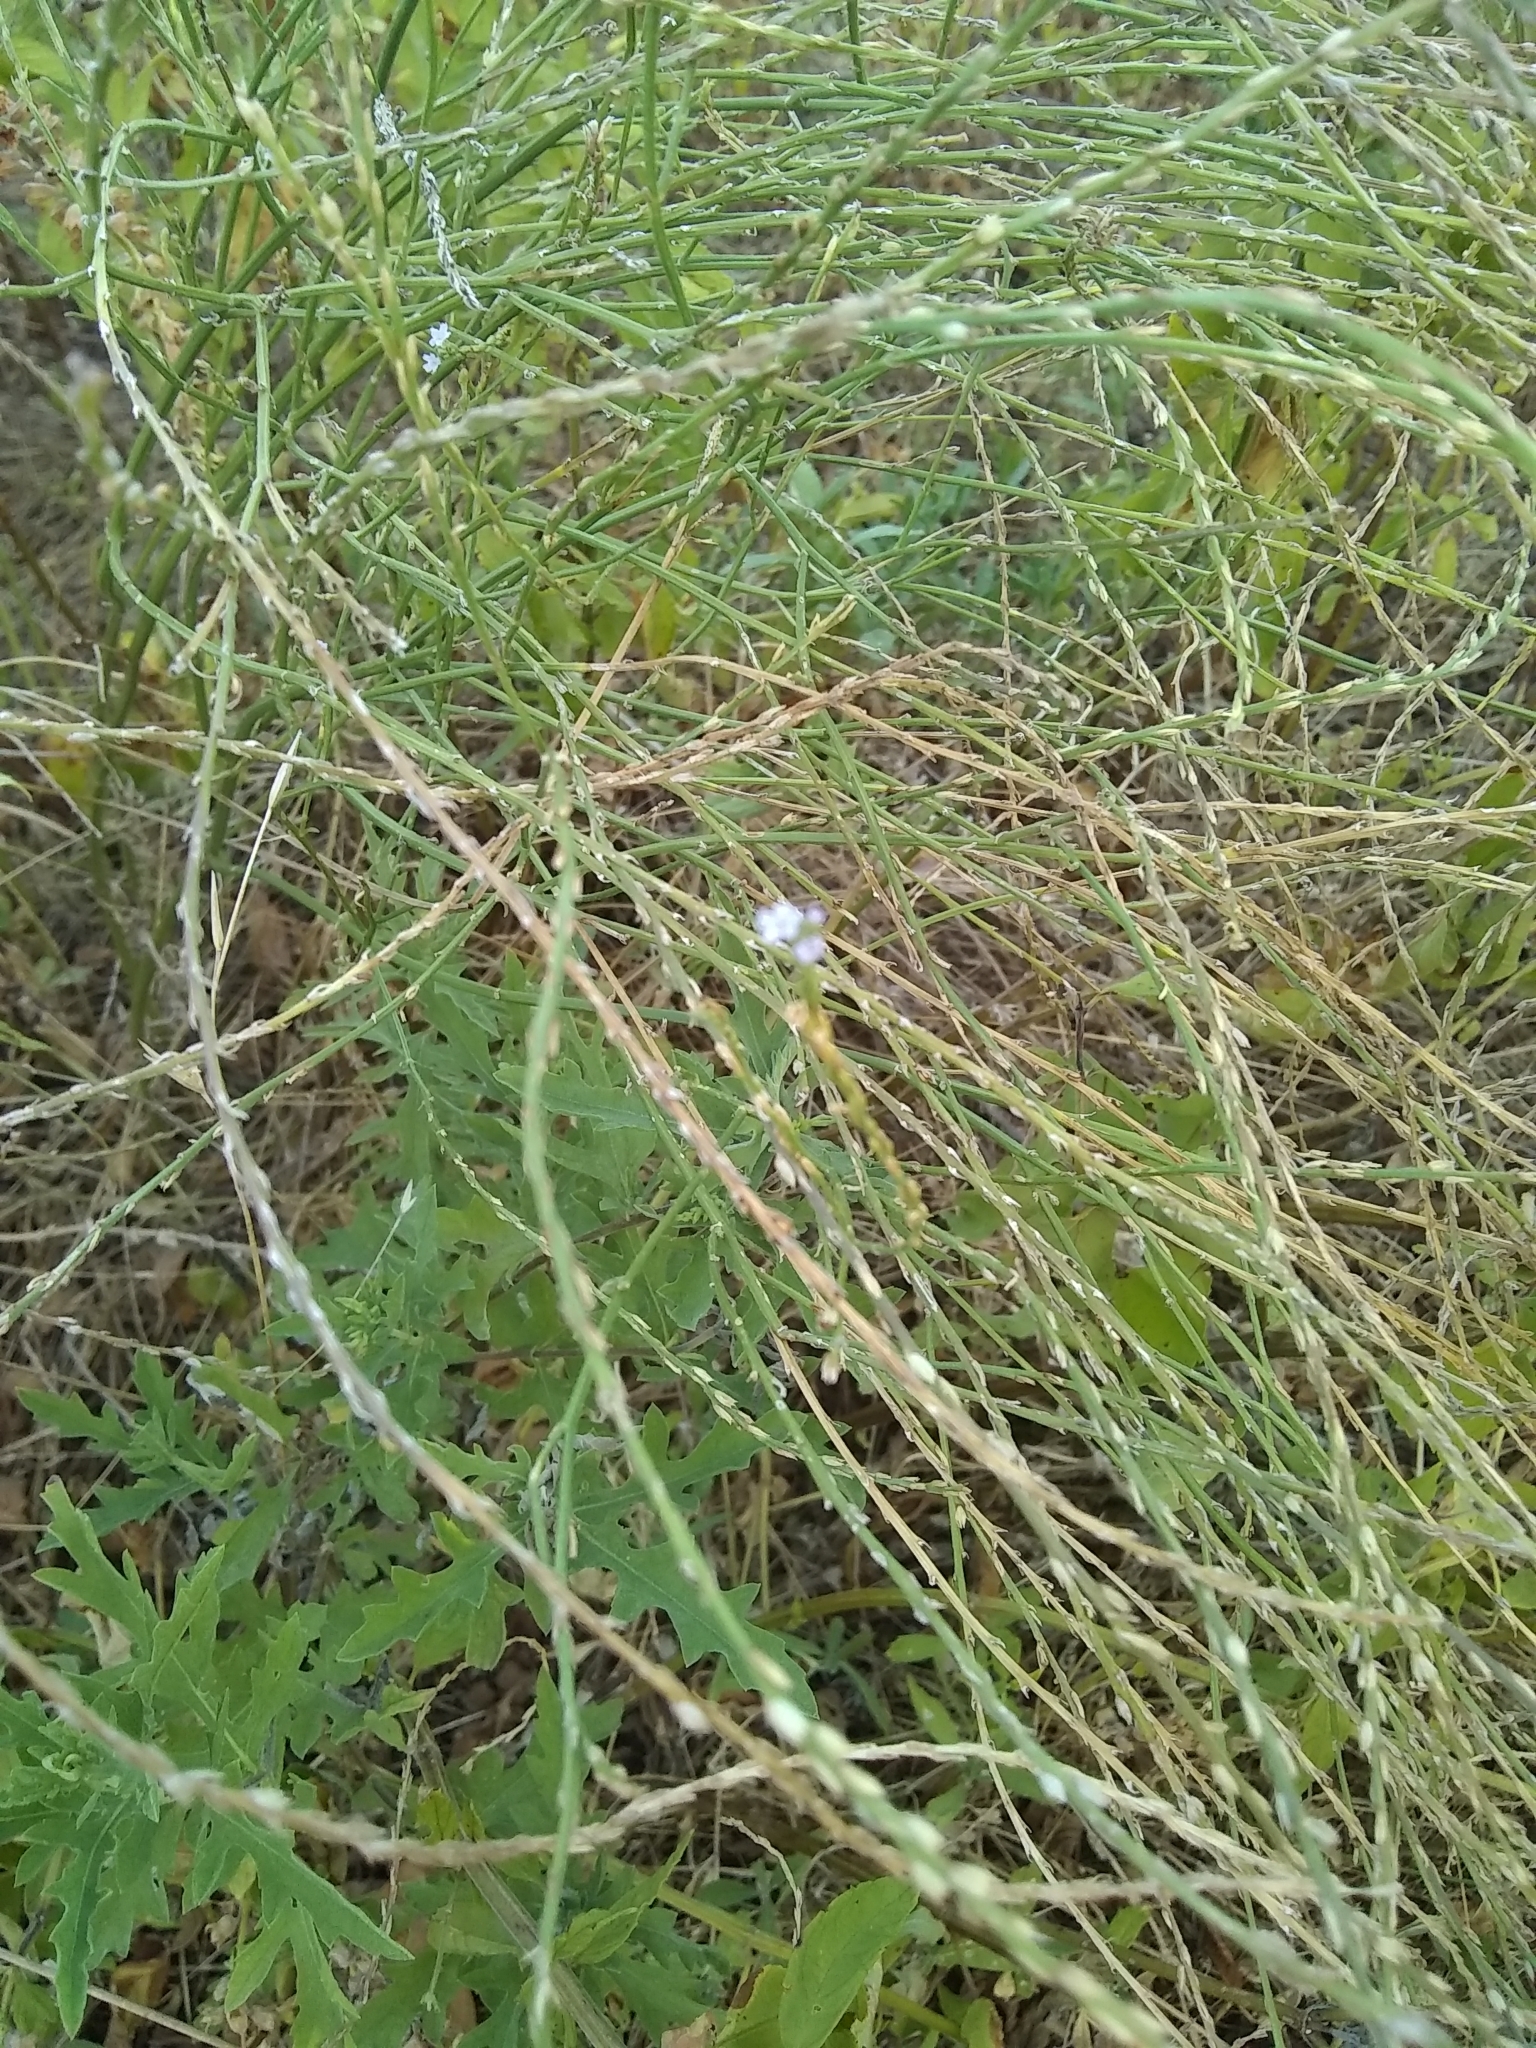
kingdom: Plantae
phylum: Tracheophyta
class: Magnoliopsida
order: Lamiales
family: Verbenaceae
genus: Verbena
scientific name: Verbena halei
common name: Texas vervain
